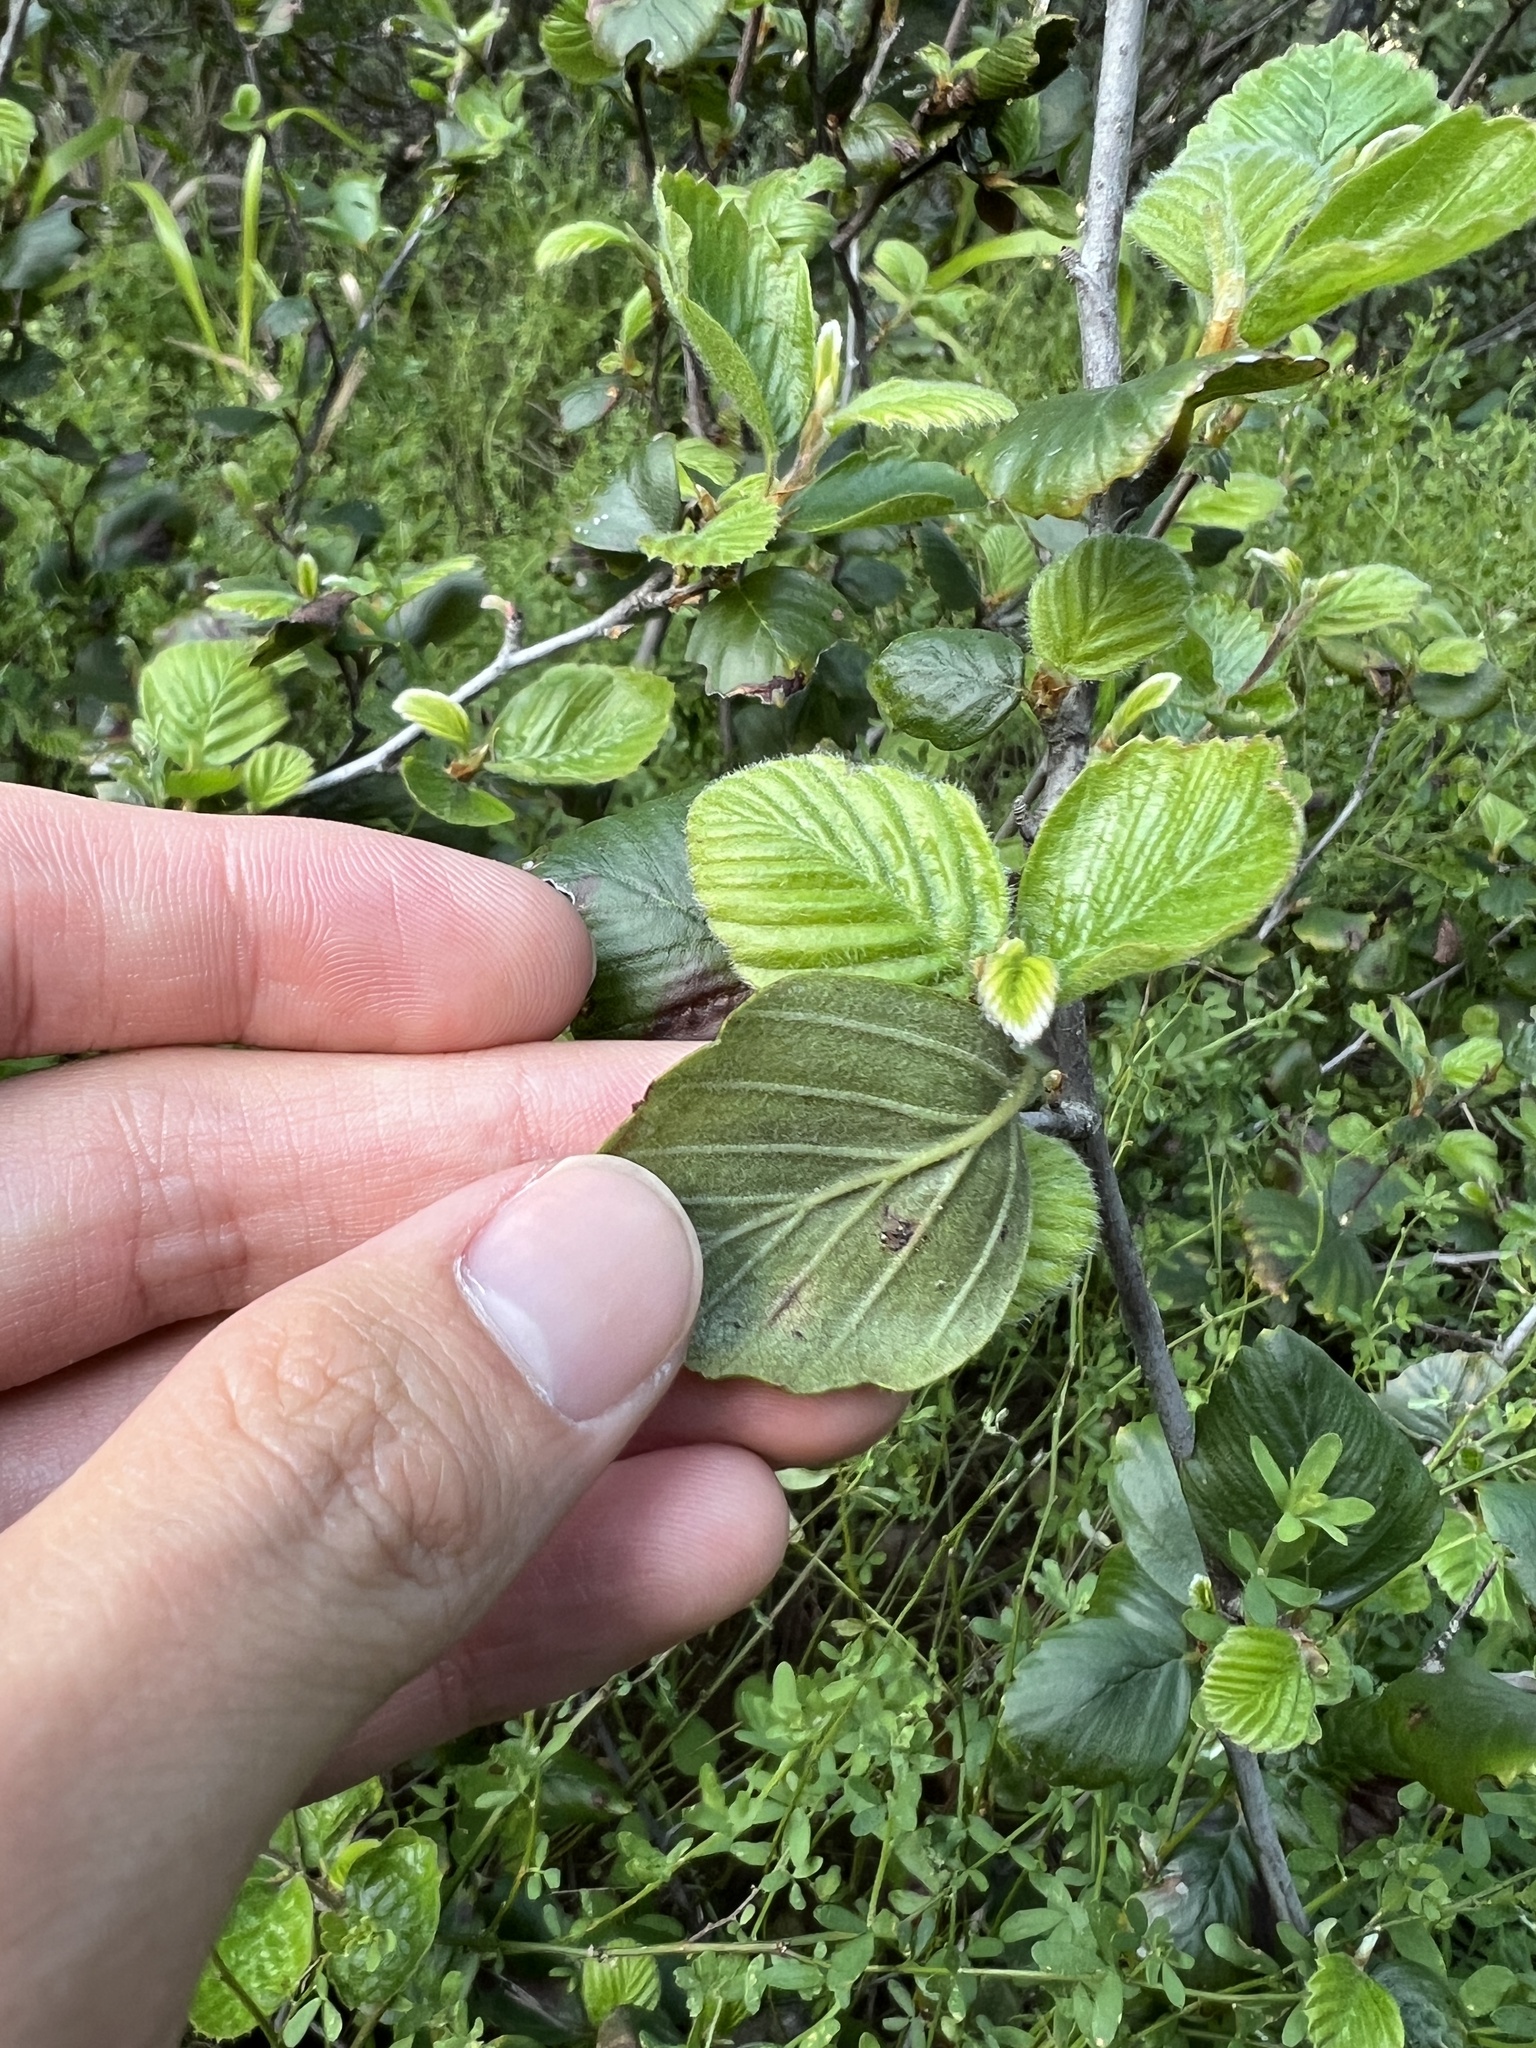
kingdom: Plantae
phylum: Tracheophyta
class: Magnoliopsida
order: Rosales
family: Rosaceae
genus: Cercocarpus
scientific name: Cercocarpus betuloides
